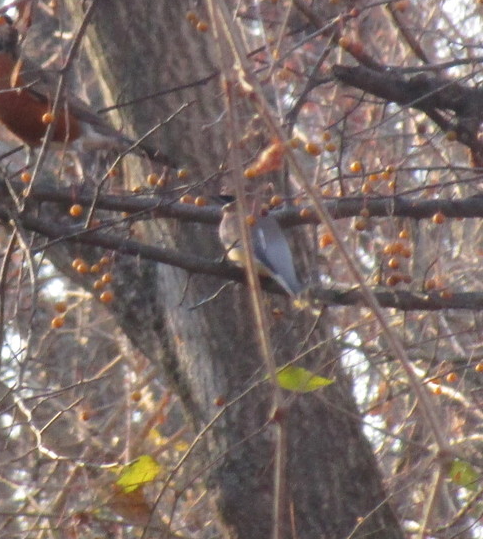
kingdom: Animalia
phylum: Chordata
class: Aves
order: Passeriformes
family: Bombycillidae
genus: Bombycilla
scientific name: Bombycilla cedrorum
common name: Cedar waxwing
